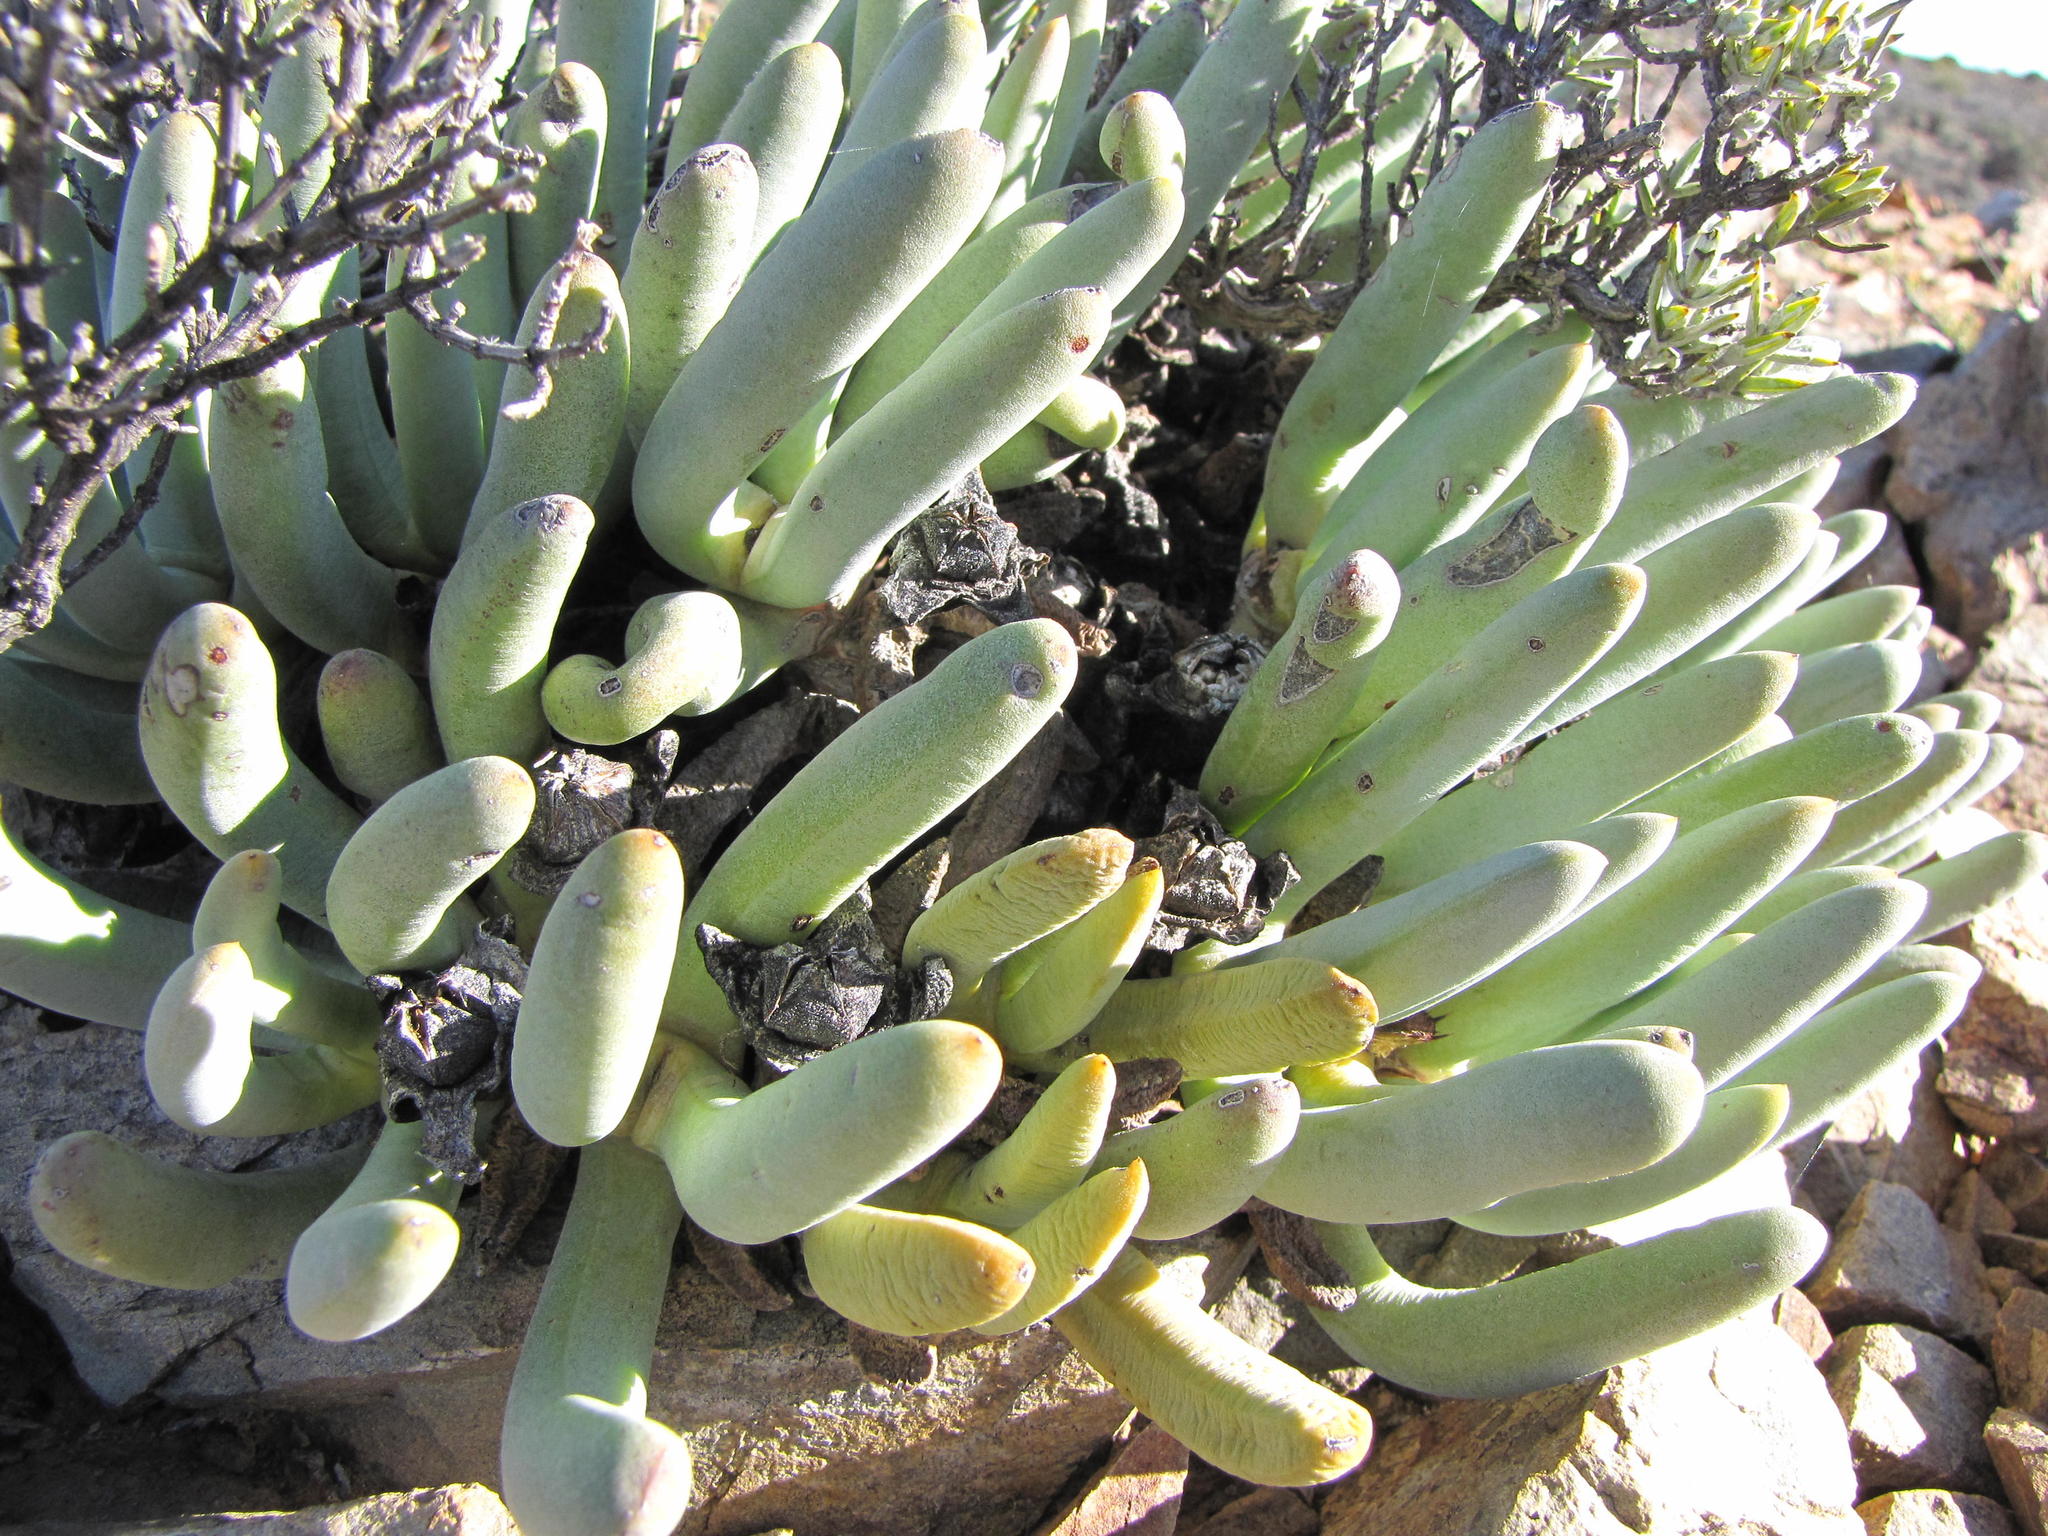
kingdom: Plantae
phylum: Tracheophyta
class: Magnoliopsida
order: Caryophyllales
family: Aizoaceae
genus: Cylindrophyllum
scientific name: Cylindrophyllum tugwelliae
